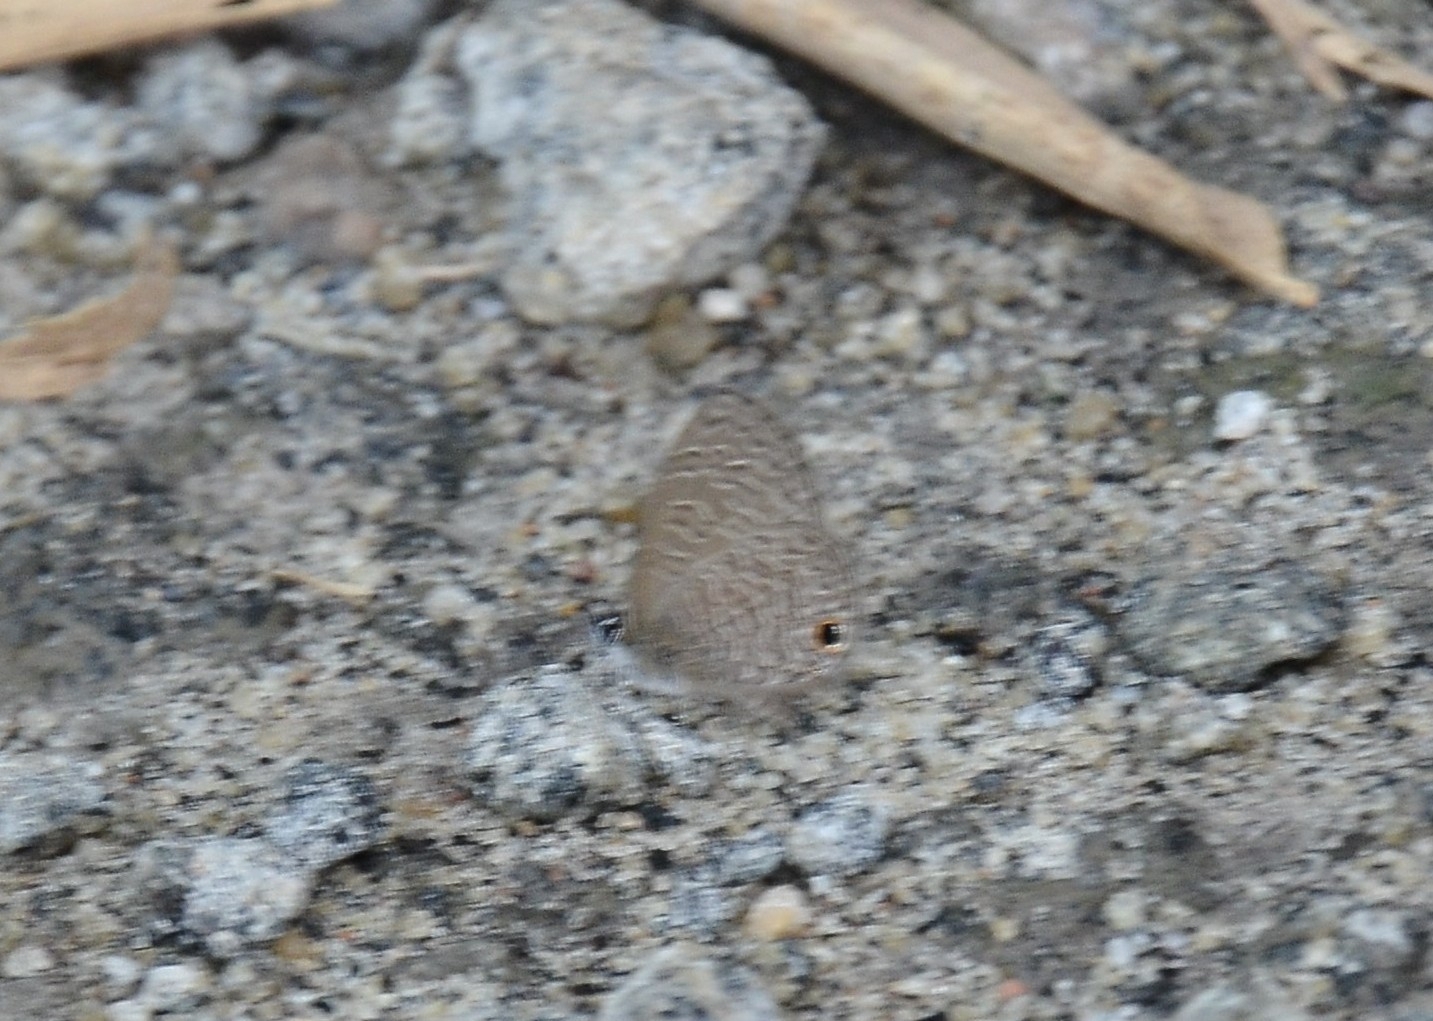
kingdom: Animalia
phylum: Arthropoda
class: Insecta
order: Lepidoptera
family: Lycaenidae
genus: Prosotas
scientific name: Prosotas dubiosa
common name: Tailless lineblue
